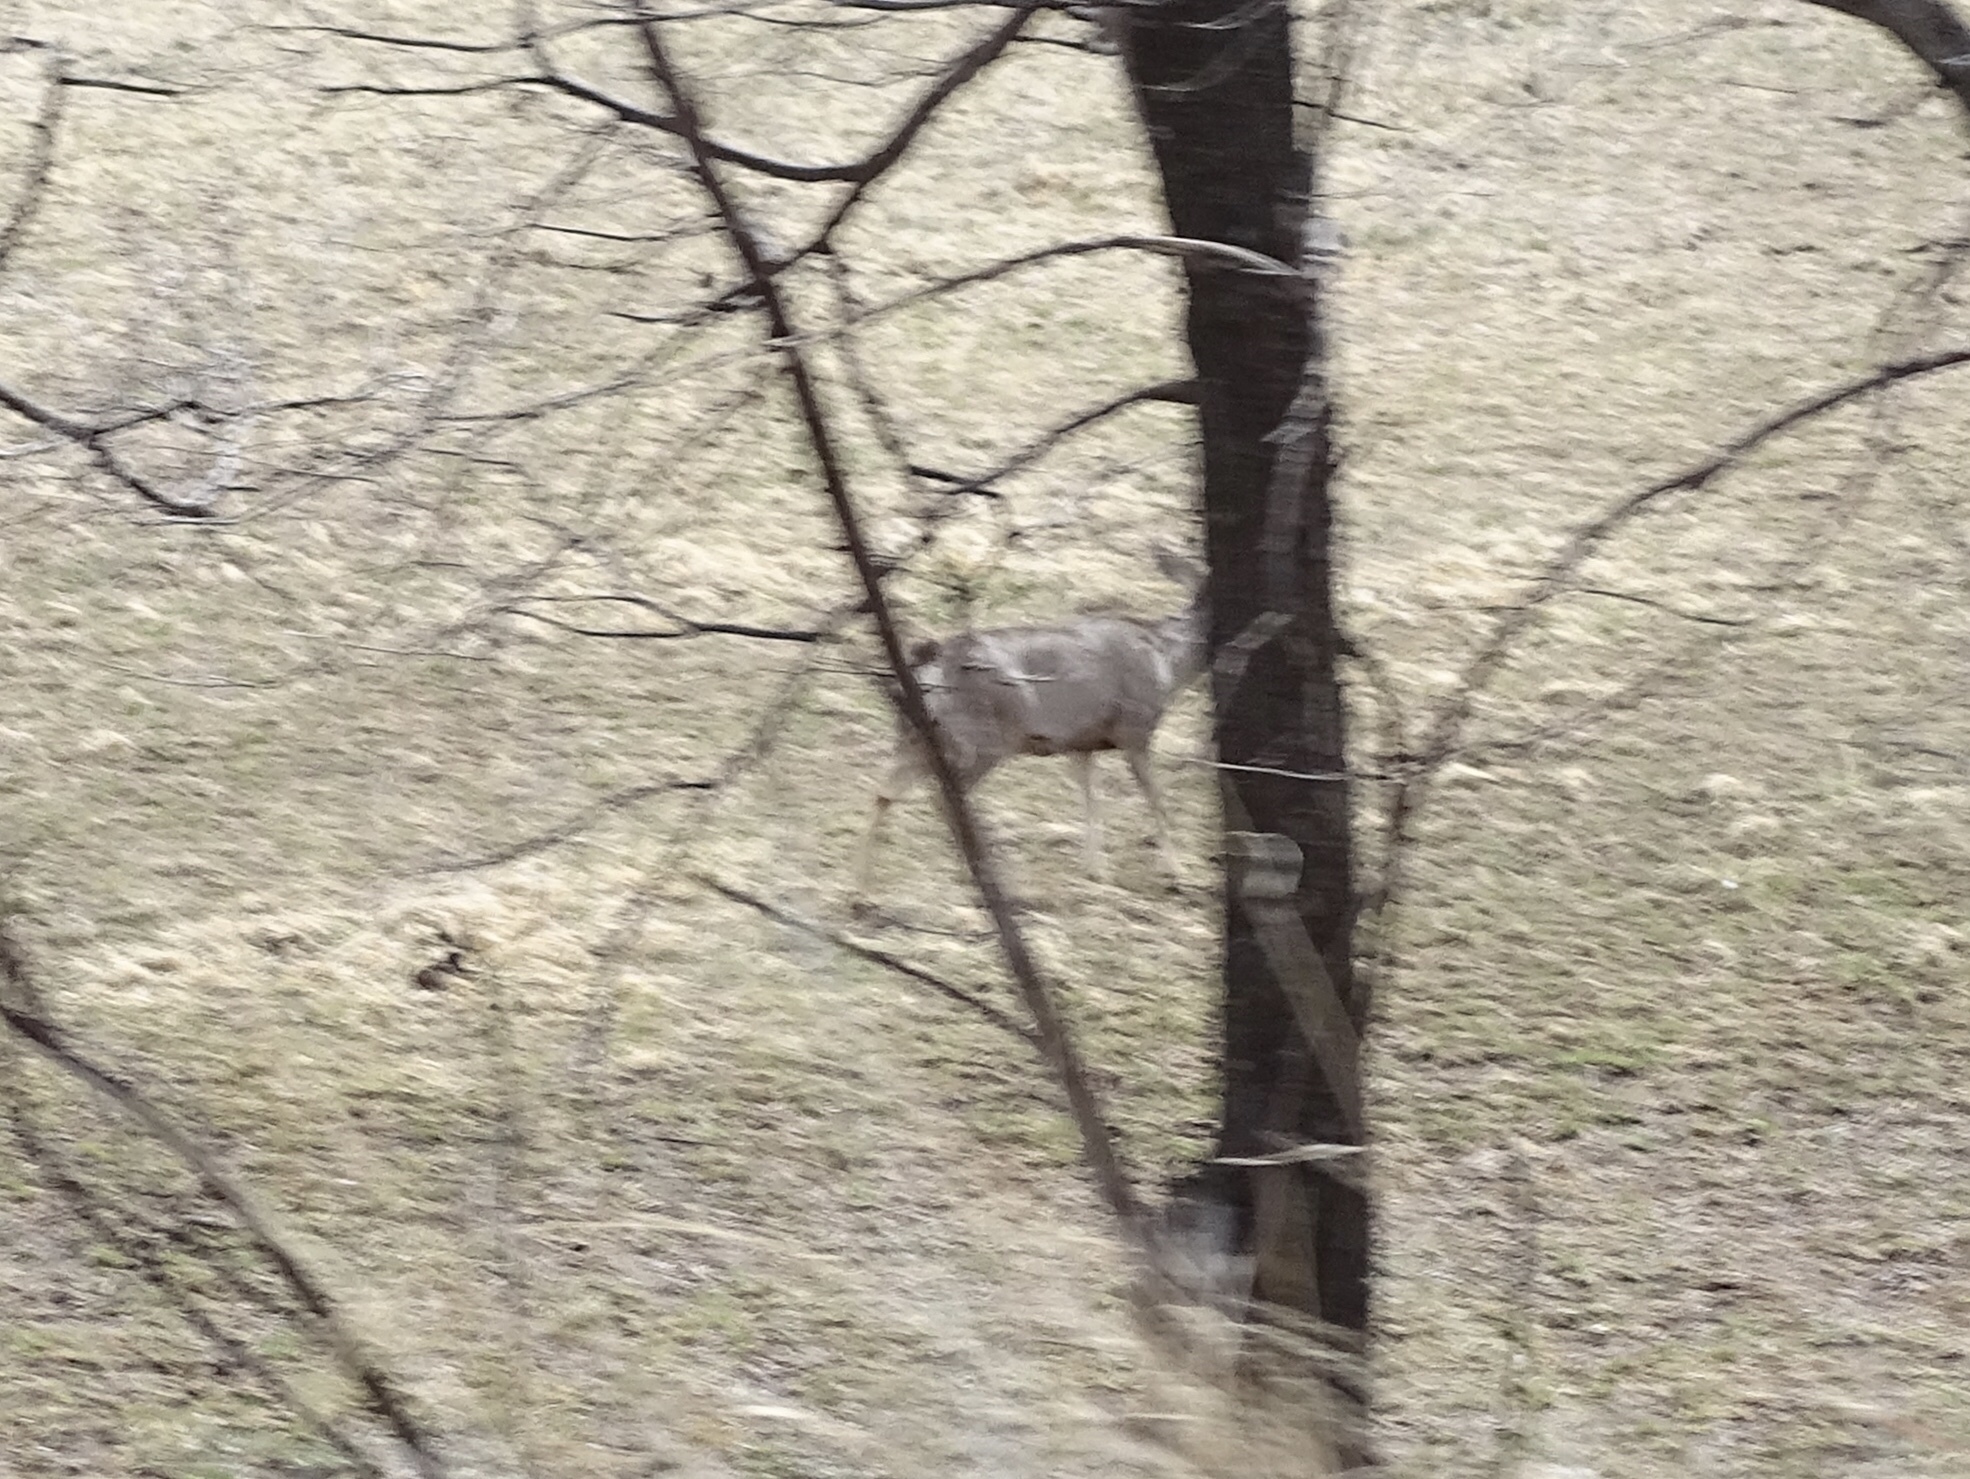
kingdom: Animalia
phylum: Chordata
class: Mammalia
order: Artiodactyla
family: Cervidae
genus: Odocoileus
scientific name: Odocoileus hemionus
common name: Mule deer
